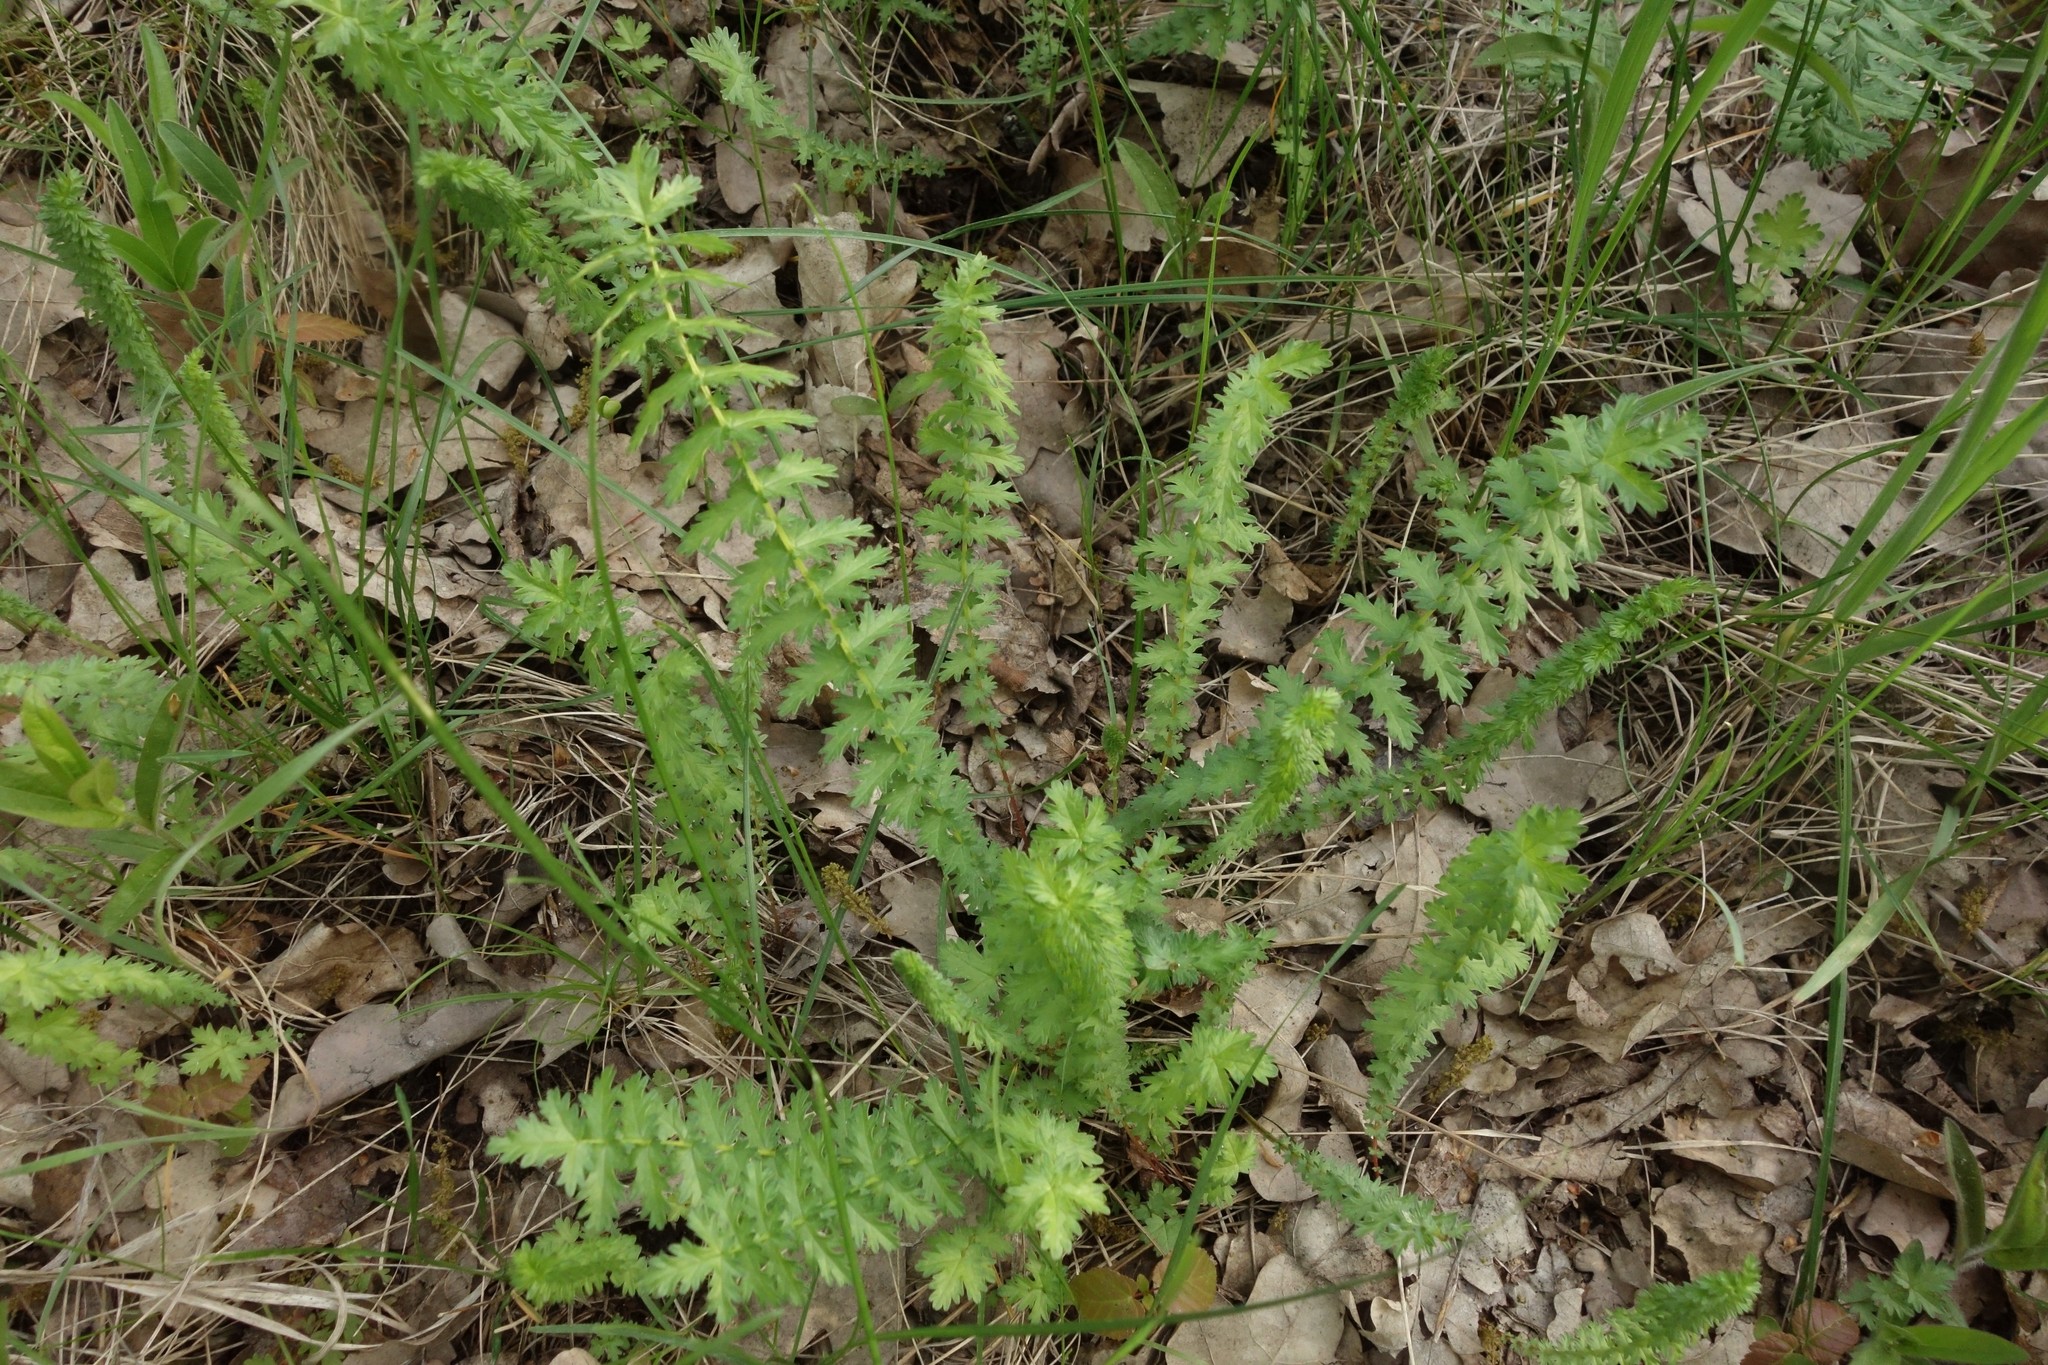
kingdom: Plantae
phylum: Tracheophyta
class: Magnoliopsida
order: Rosales
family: Rosaceae
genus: Filipendula
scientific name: Filipendula vulgaris
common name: Dropwort
